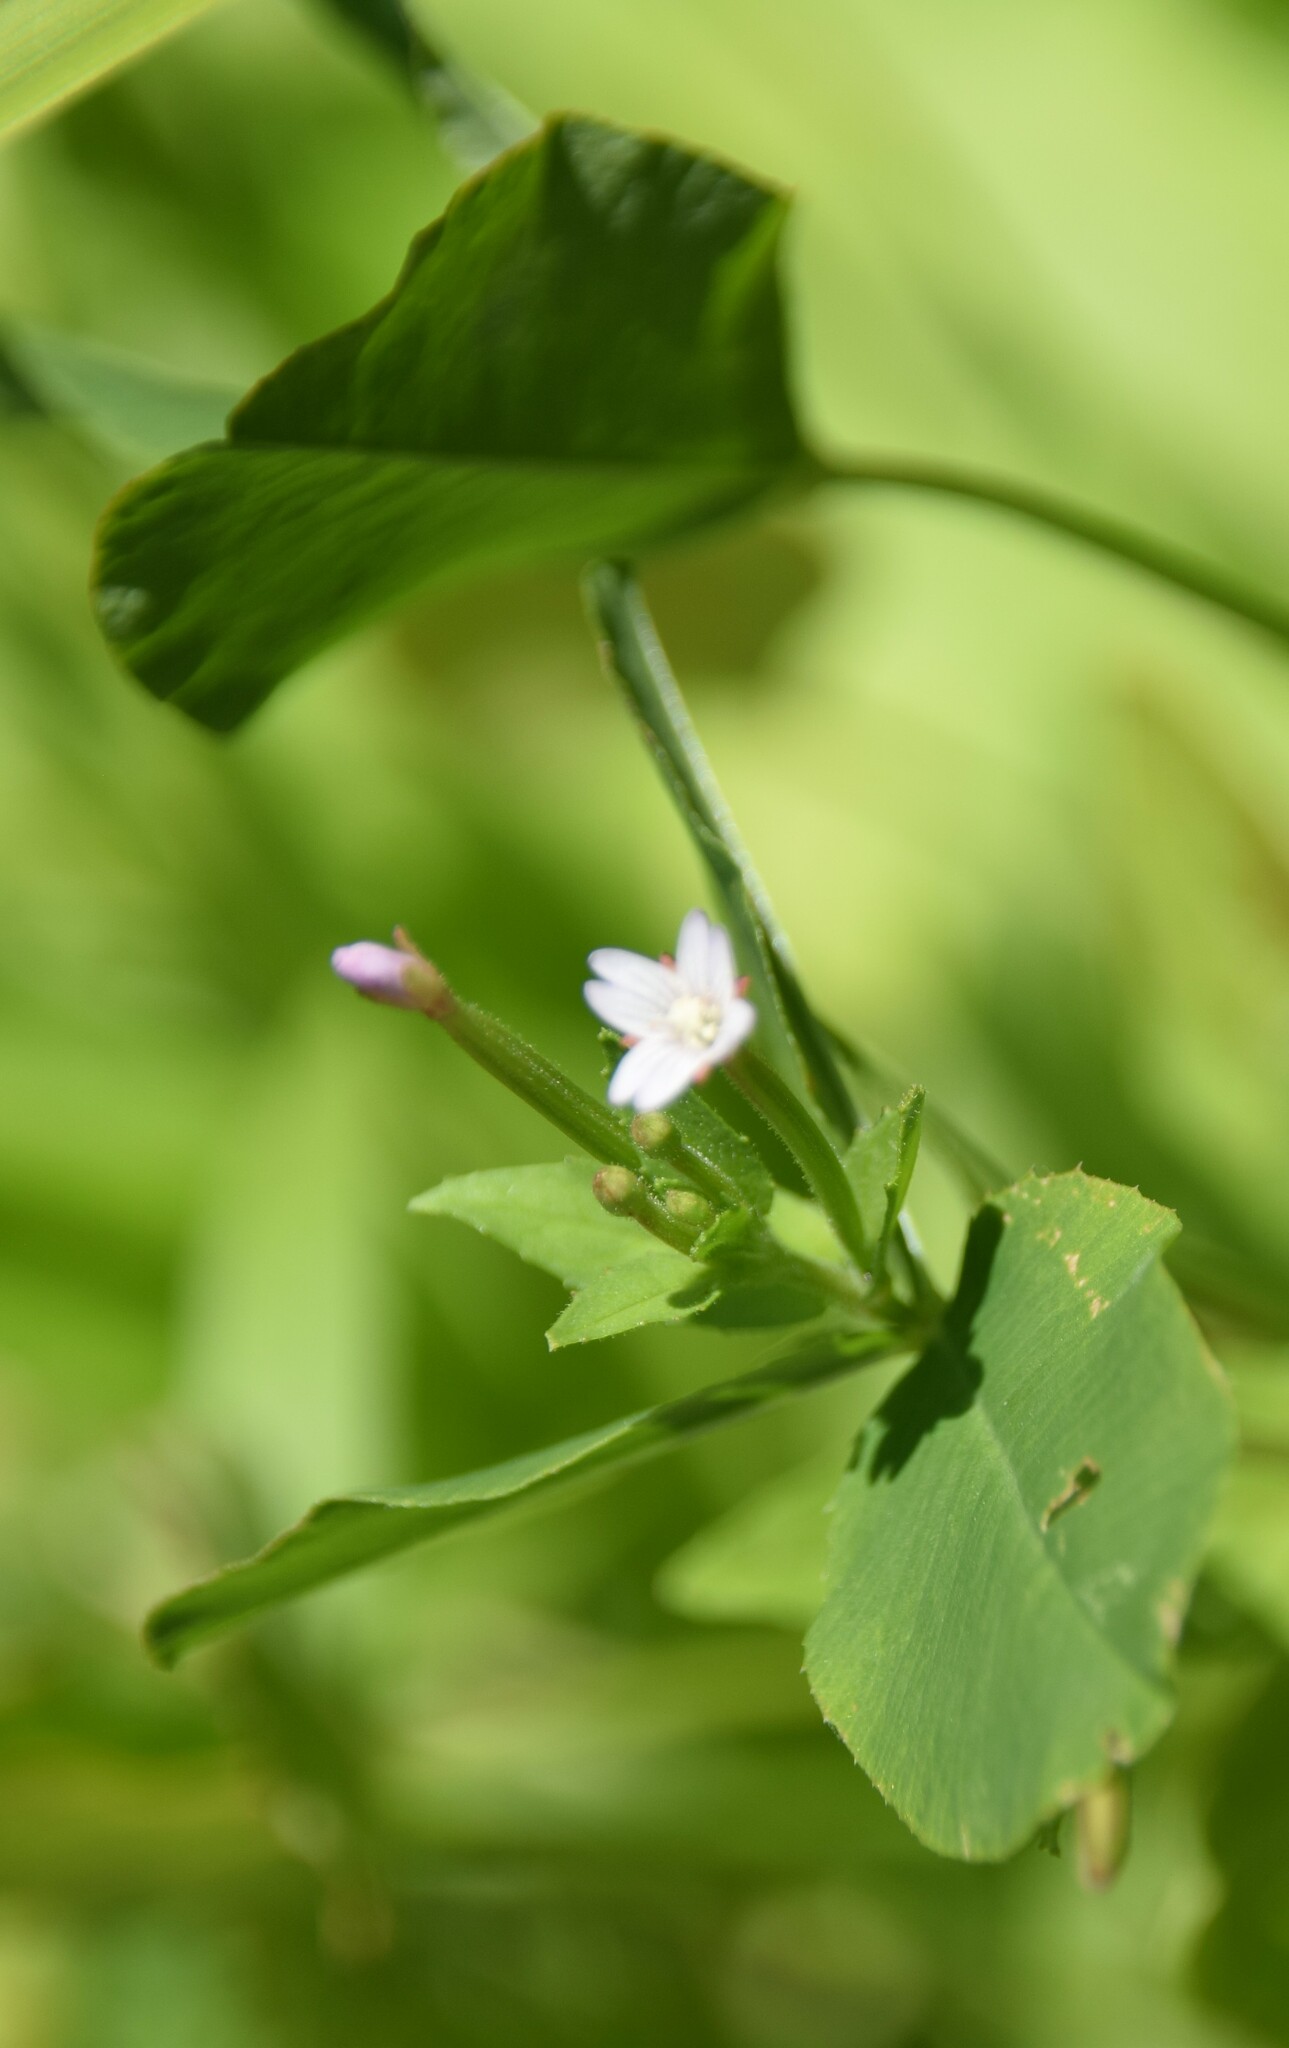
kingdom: Plantae
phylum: Tracheophyta
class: Magnoliopsida
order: Myrtales
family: Onagraceae
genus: Epilobium
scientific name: Epilobium ciliatum
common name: American willowherb
